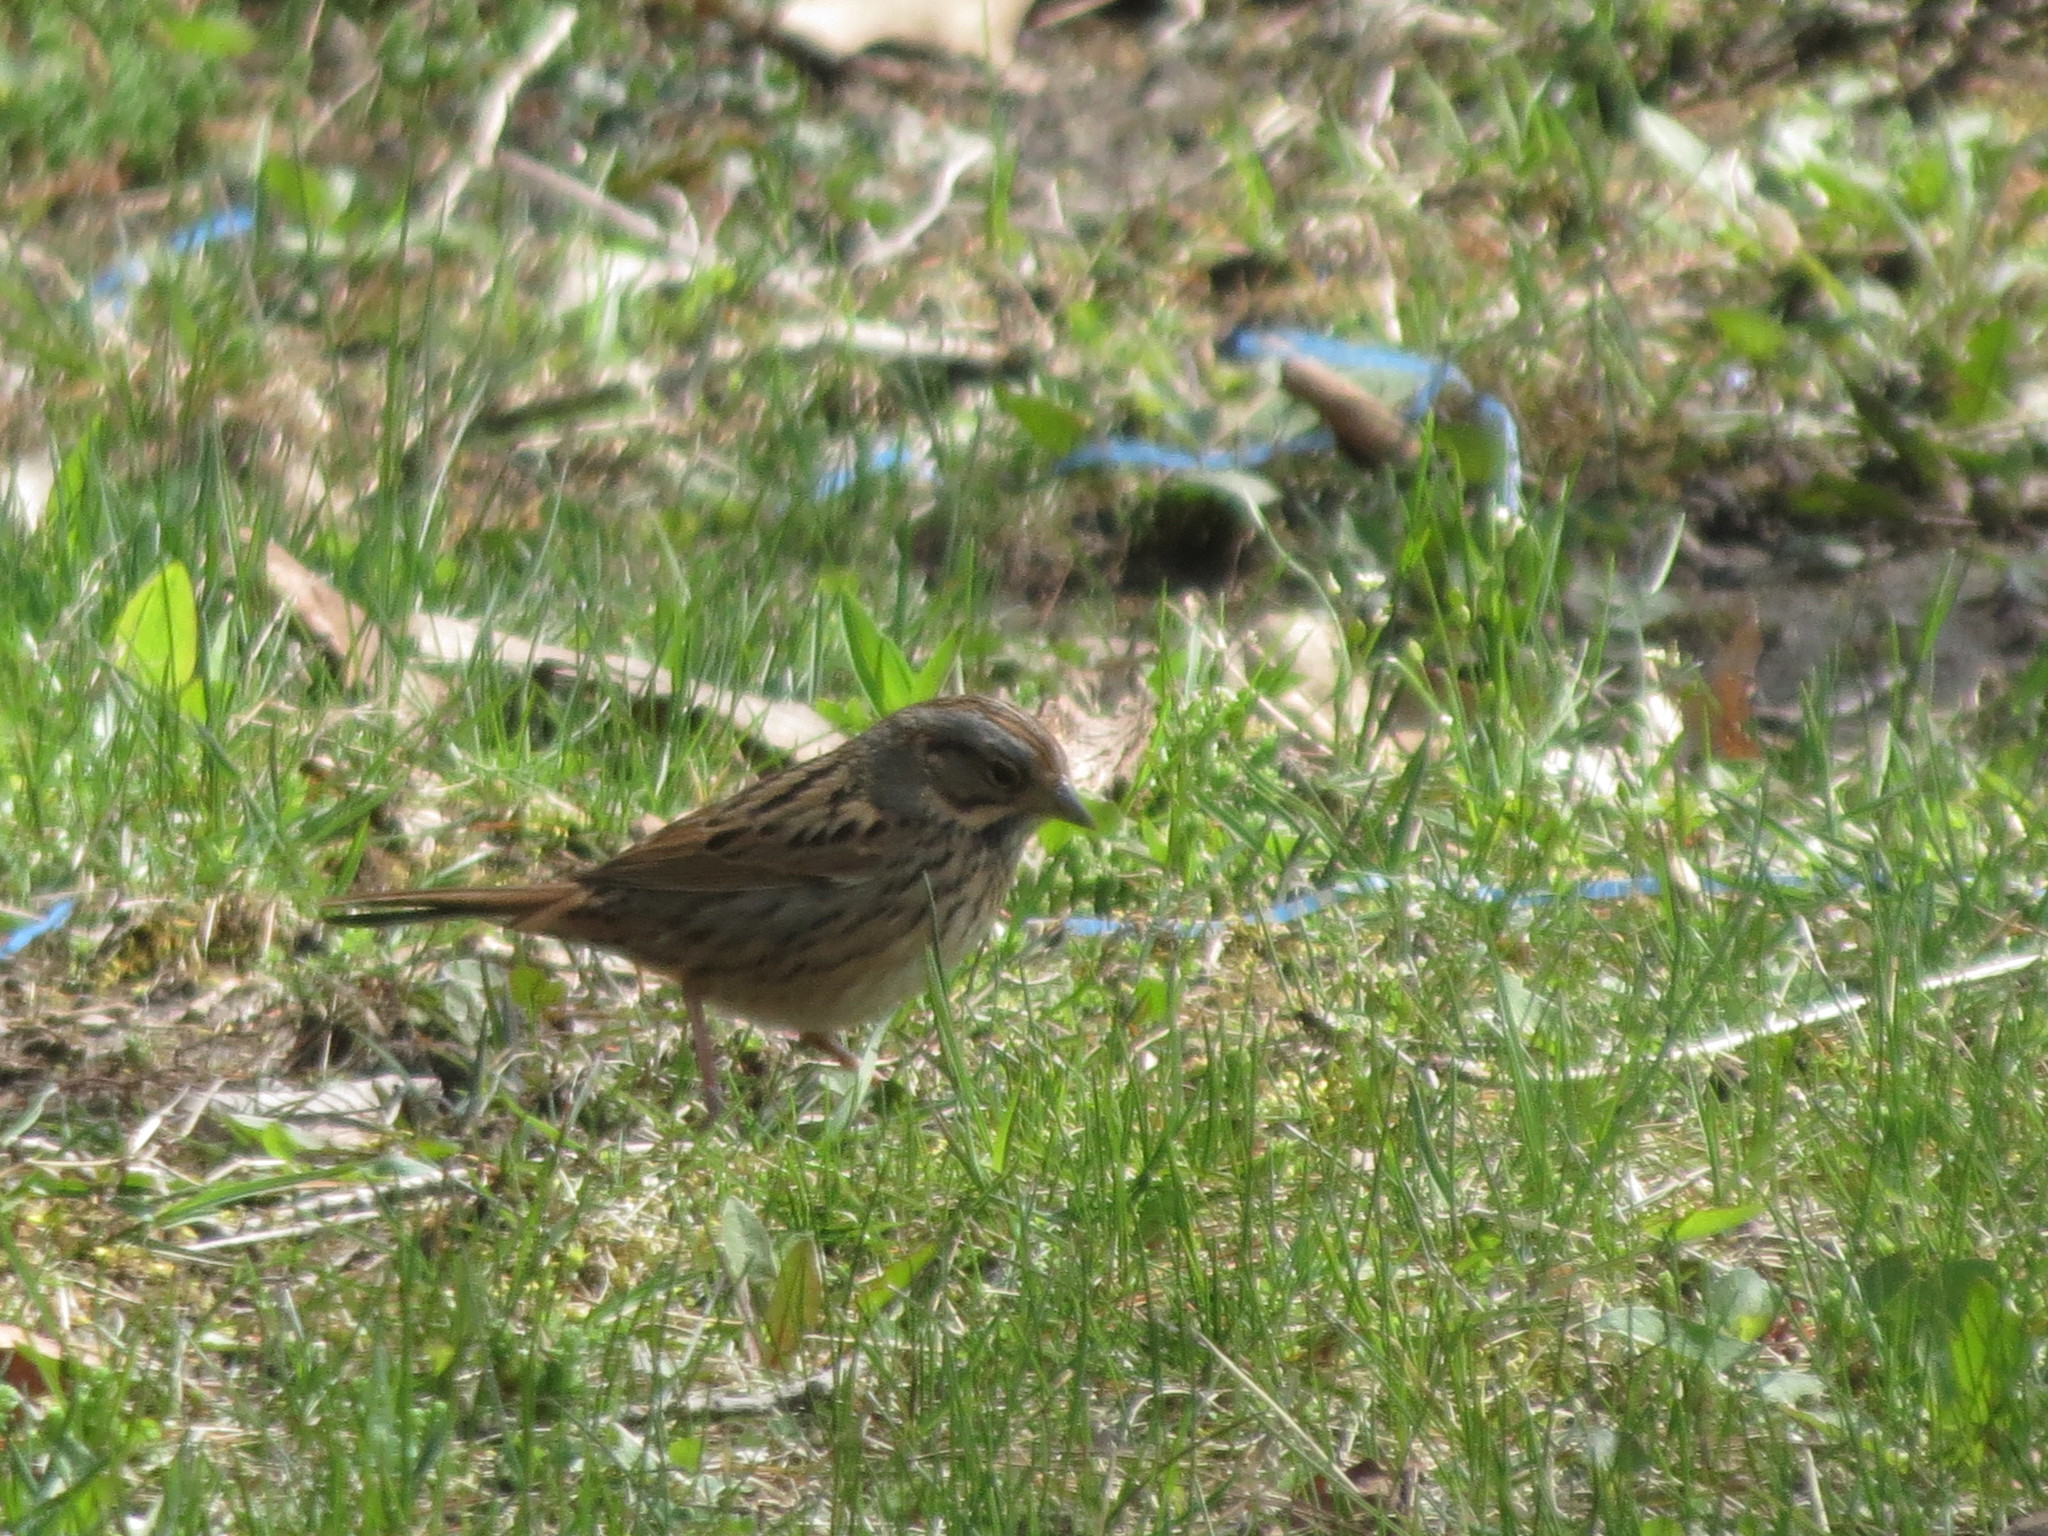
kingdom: Animalia
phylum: Chordata
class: Aves
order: Passeriformes
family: Passerellidae
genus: Melospiza
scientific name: Melospiza lincolnii
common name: Lincoln's sparrow
